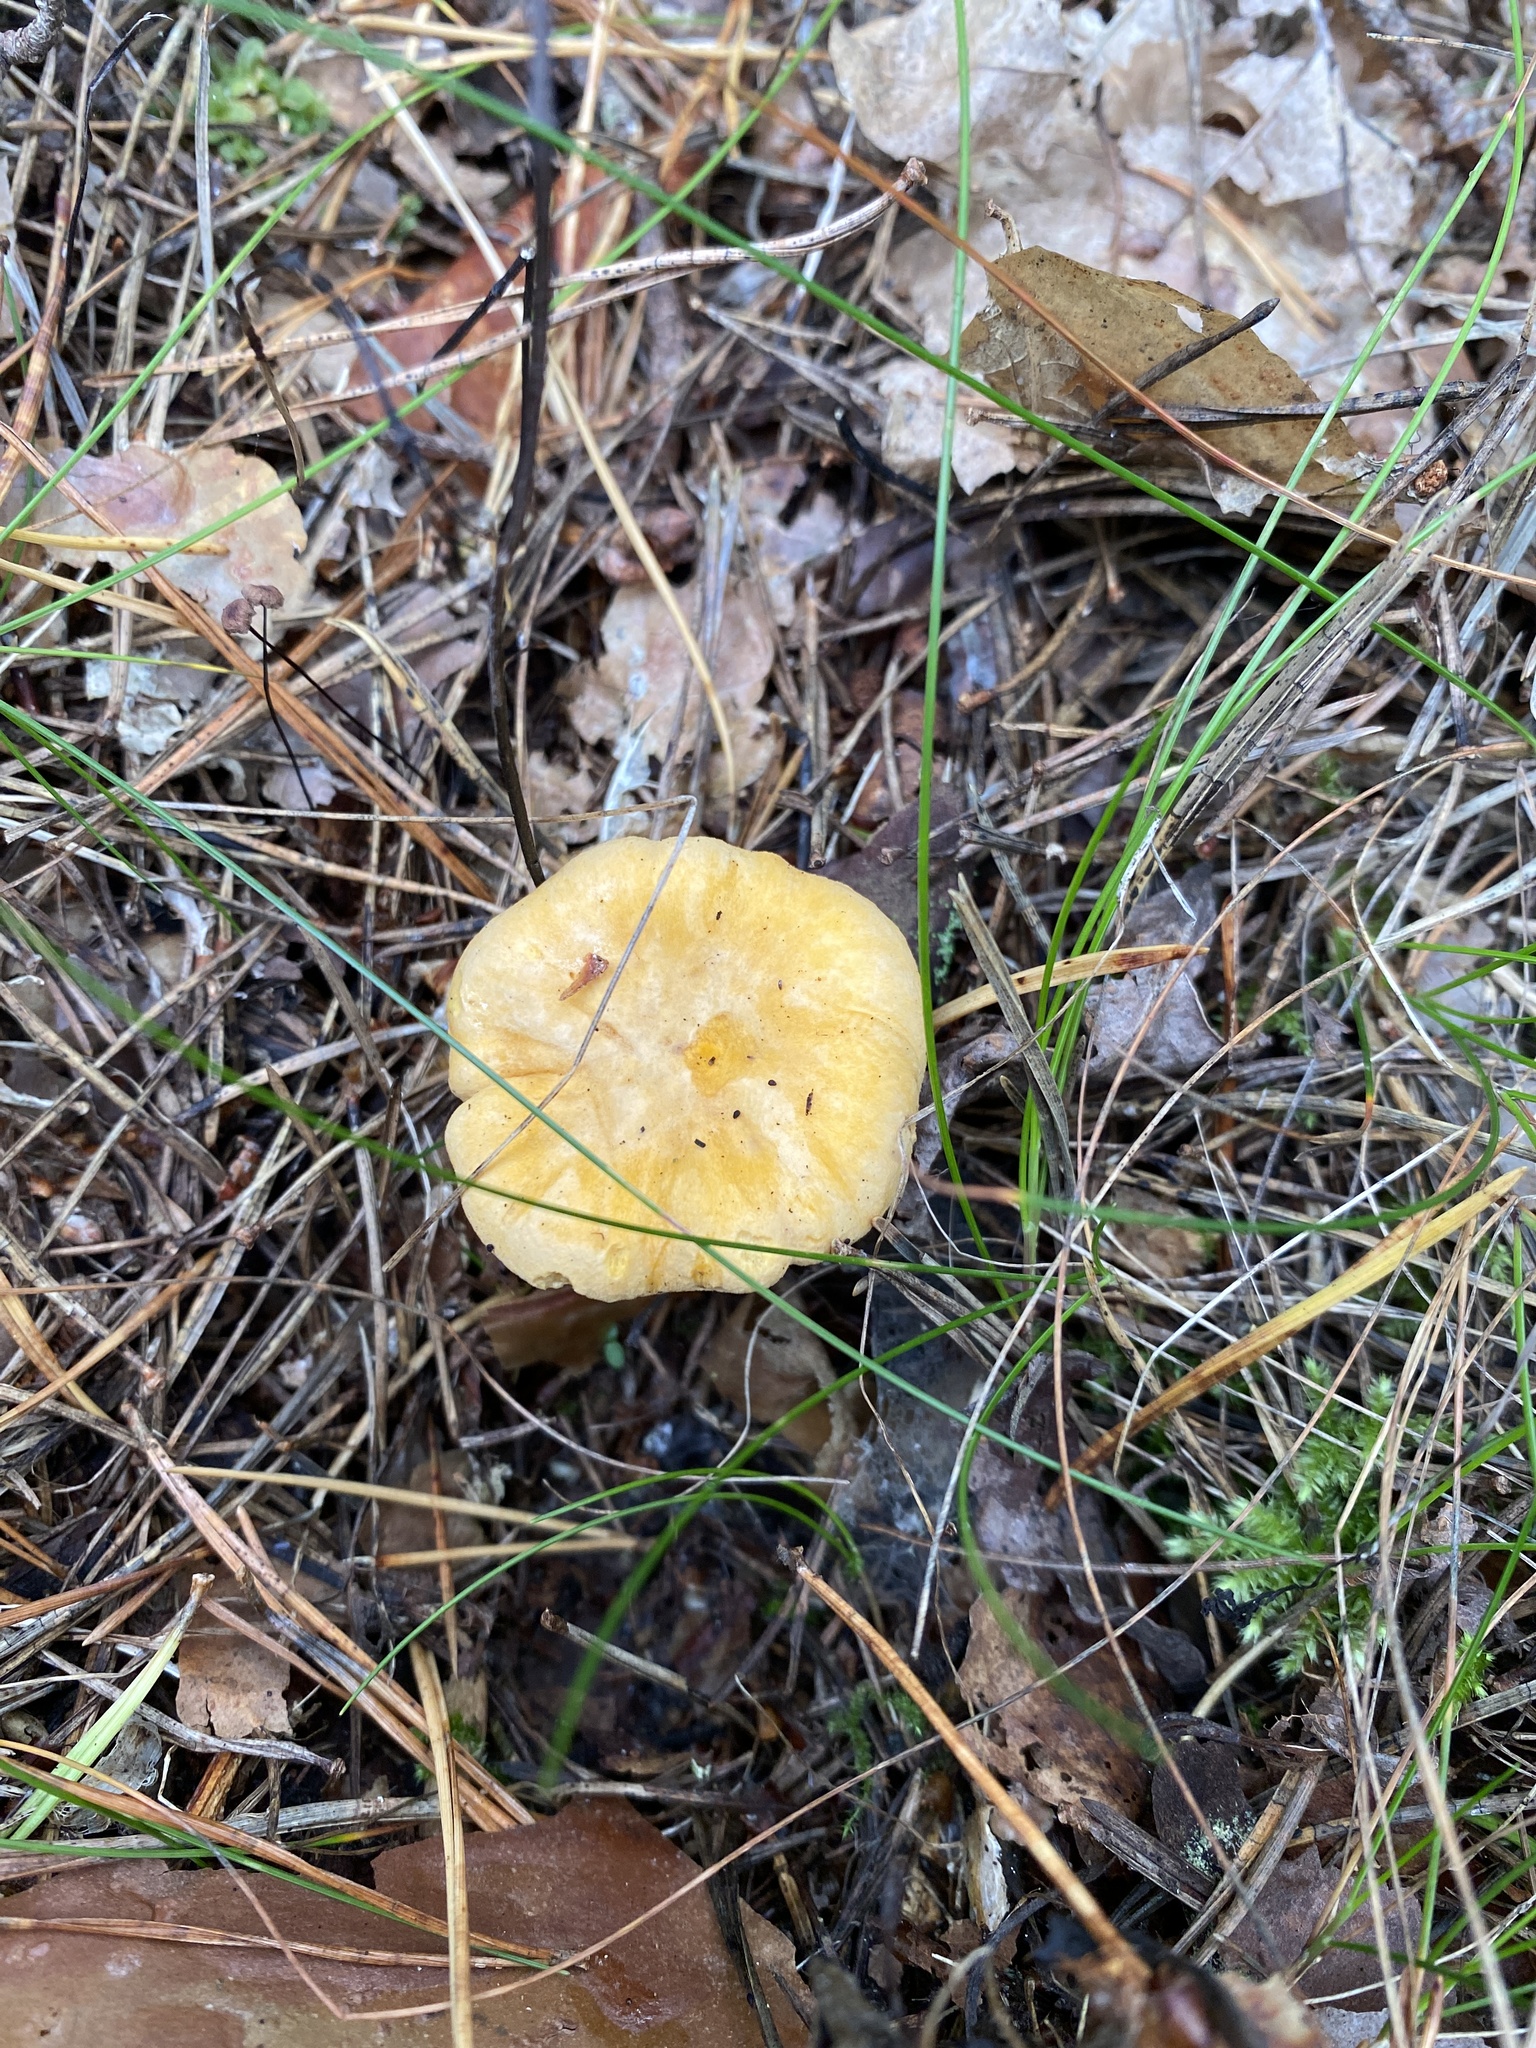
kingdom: Fungi
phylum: Basidiomycota
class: Agaricomycetes
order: Cantharellales
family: Hydnaceae
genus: Cantharellus
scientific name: Cantharellus cibarius
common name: Chanterelle
